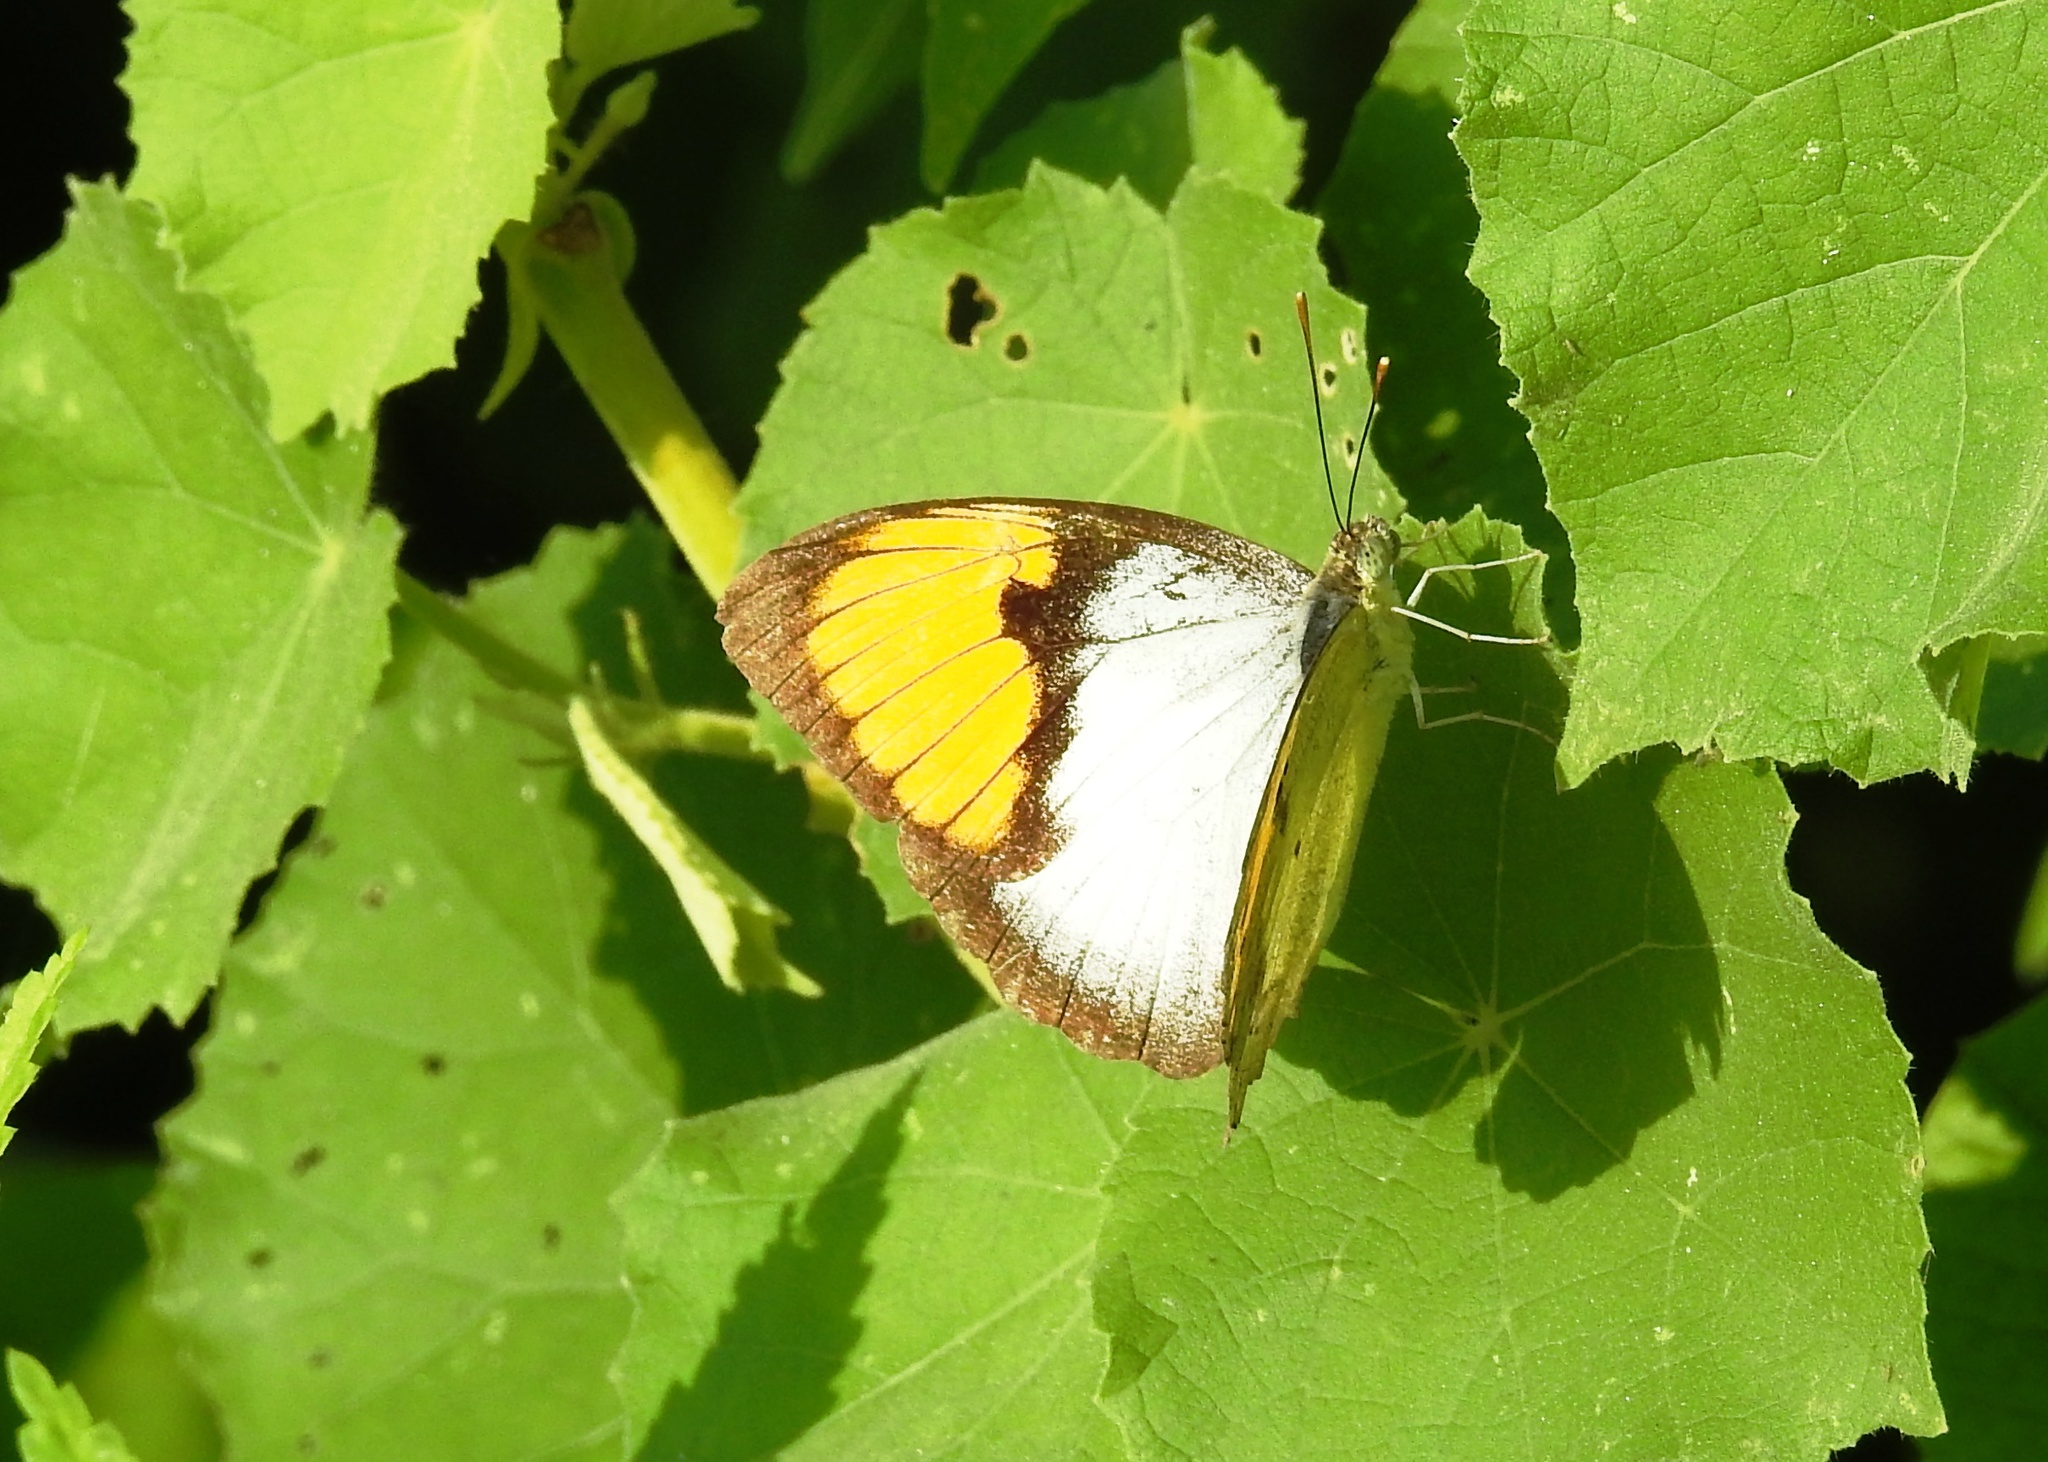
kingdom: Animalia
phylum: Arthropoda
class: Insecta
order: Lepidoptera
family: Pieridae
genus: Ixias
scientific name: Ixias marianne
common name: White orange tip
